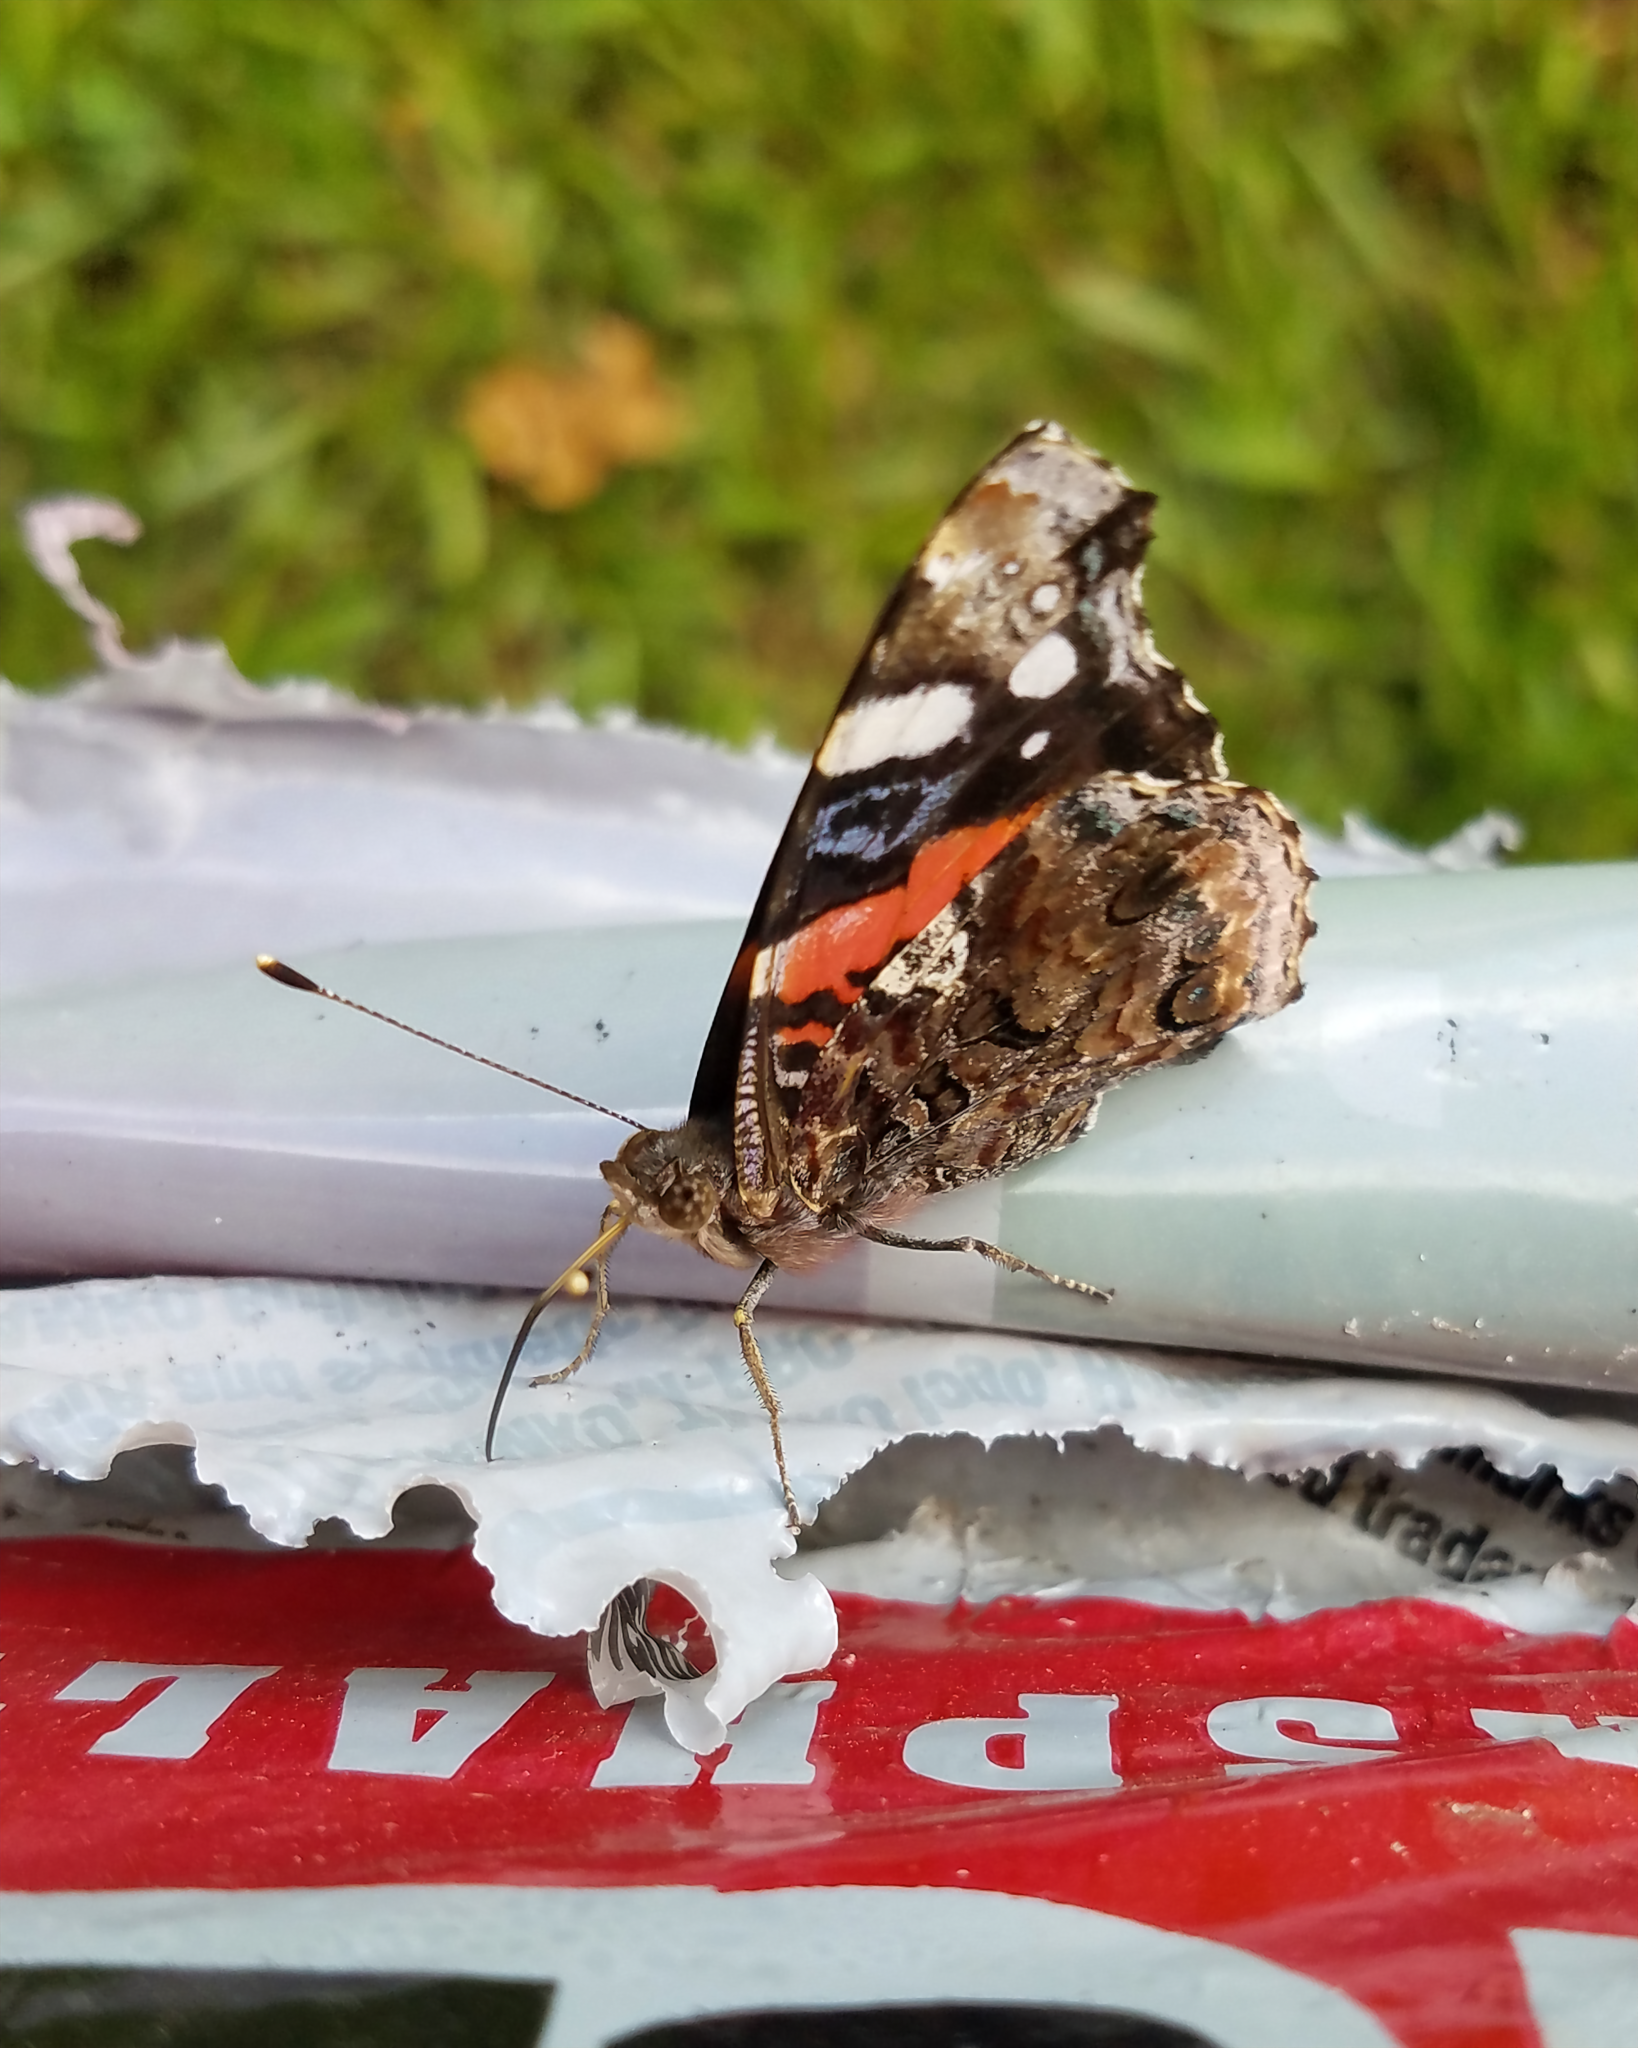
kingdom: Animalia
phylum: Arthropoda
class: Insecta
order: Lepidoptera
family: Nymphalidae
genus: Vanessa
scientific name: Vanessa atalanta
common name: Red admiral
